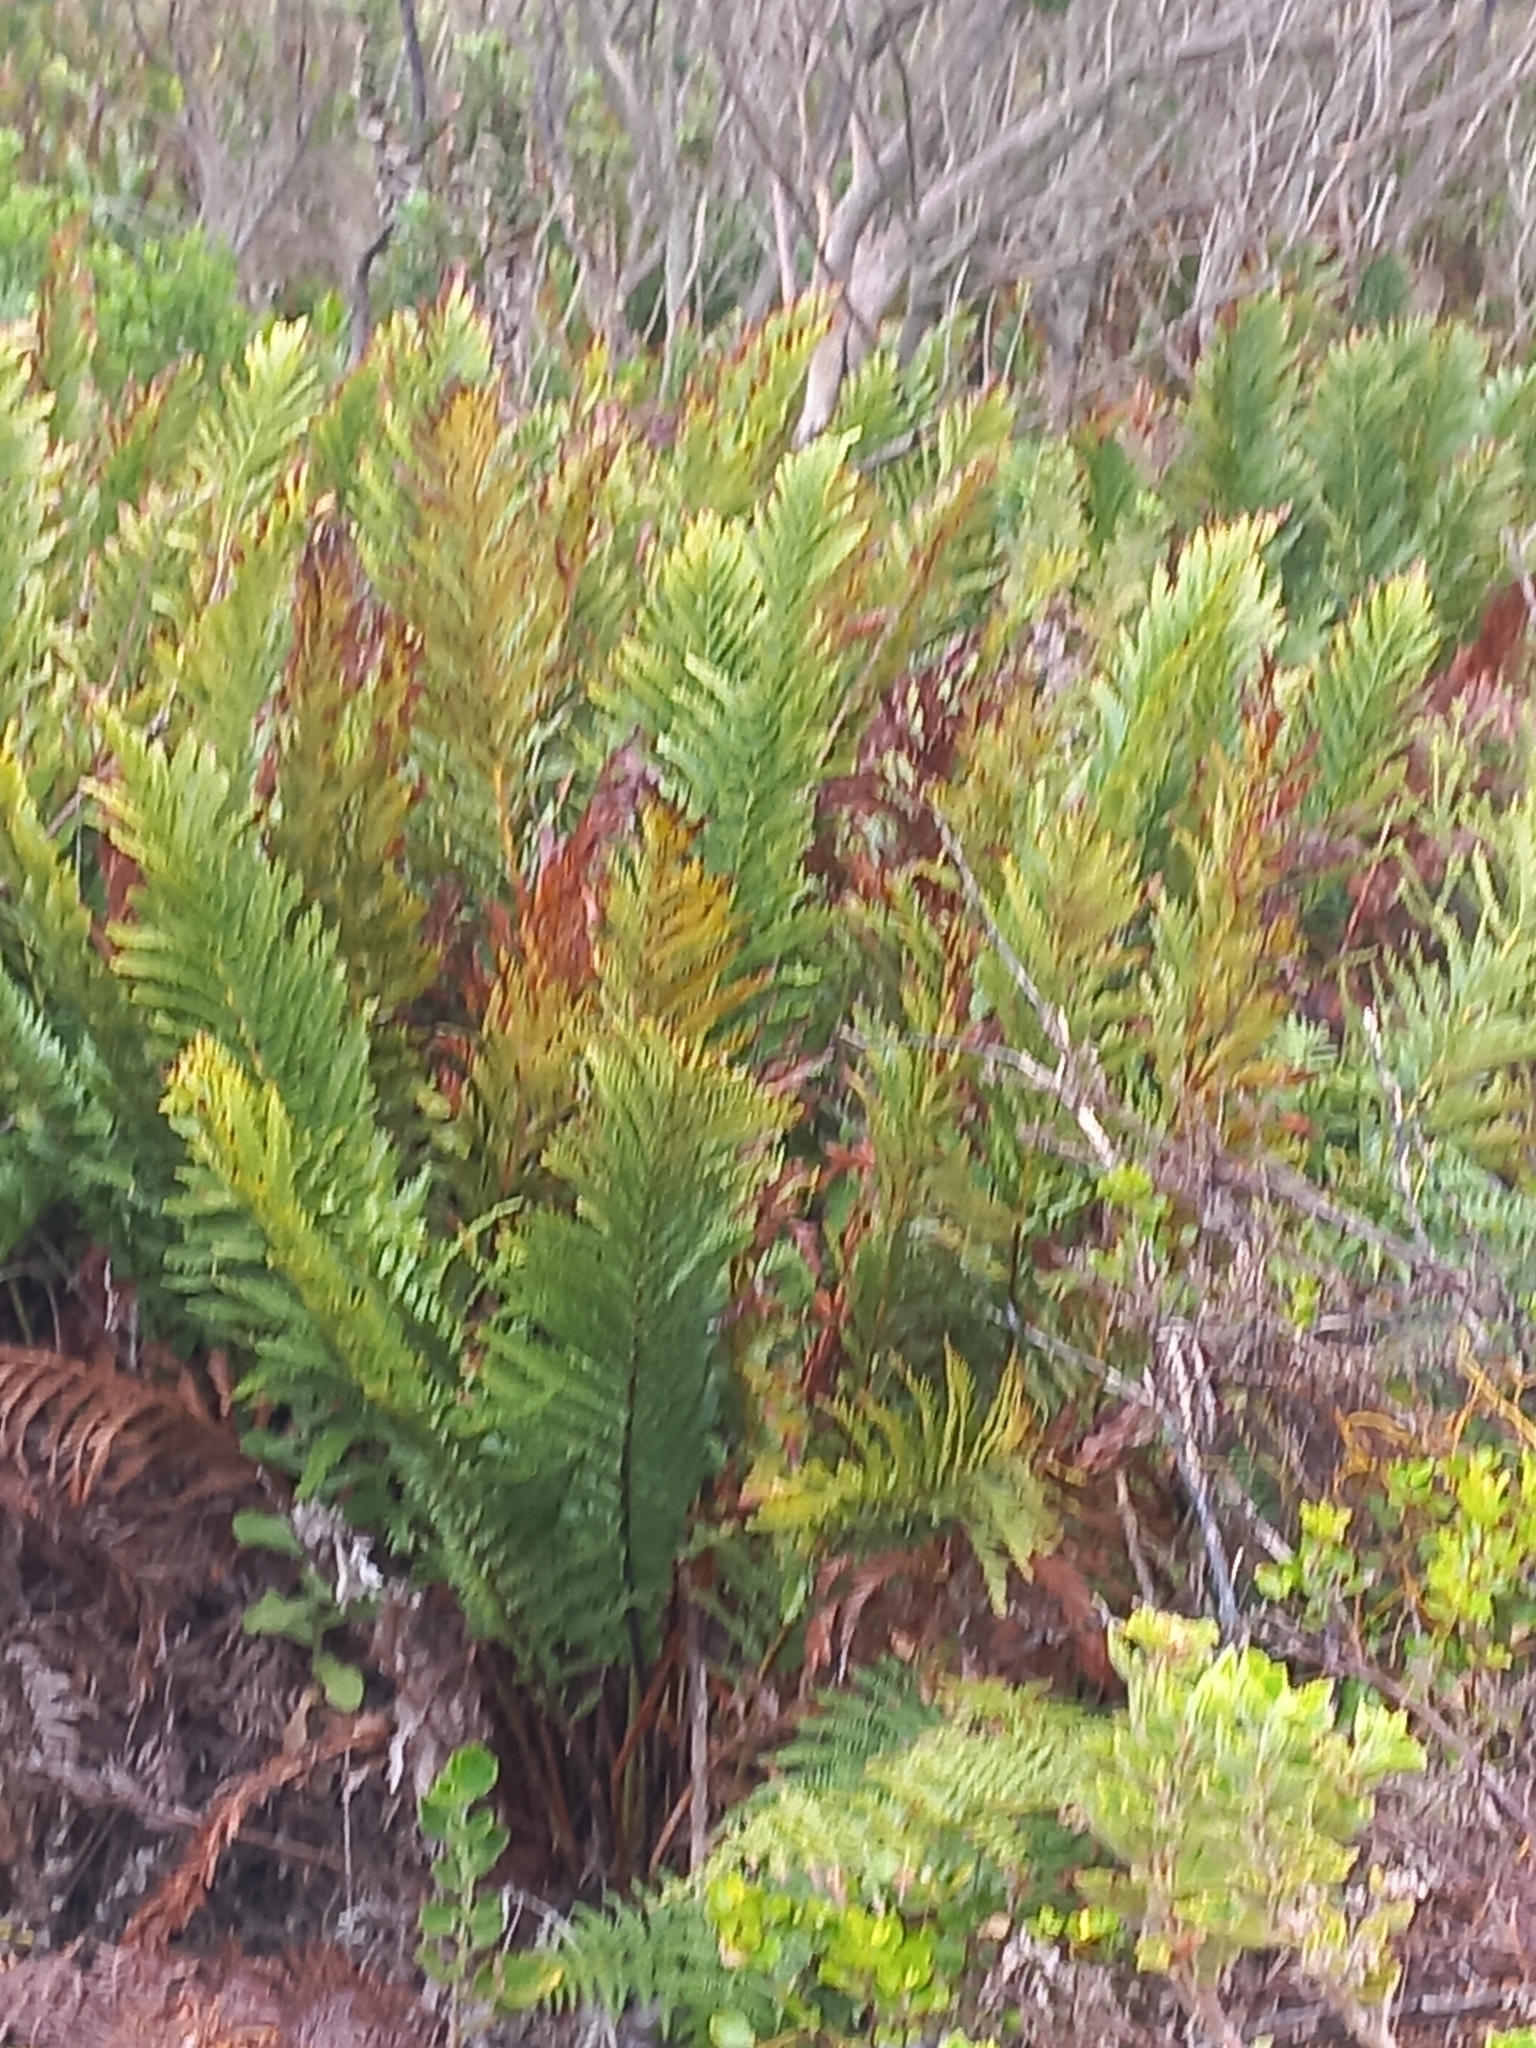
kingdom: Plantae
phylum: Tracheophyta
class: Polypodiopsida
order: Polypodiales
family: Blechnaceae
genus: Lomariocycas
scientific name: Lomariocycas tabularis
